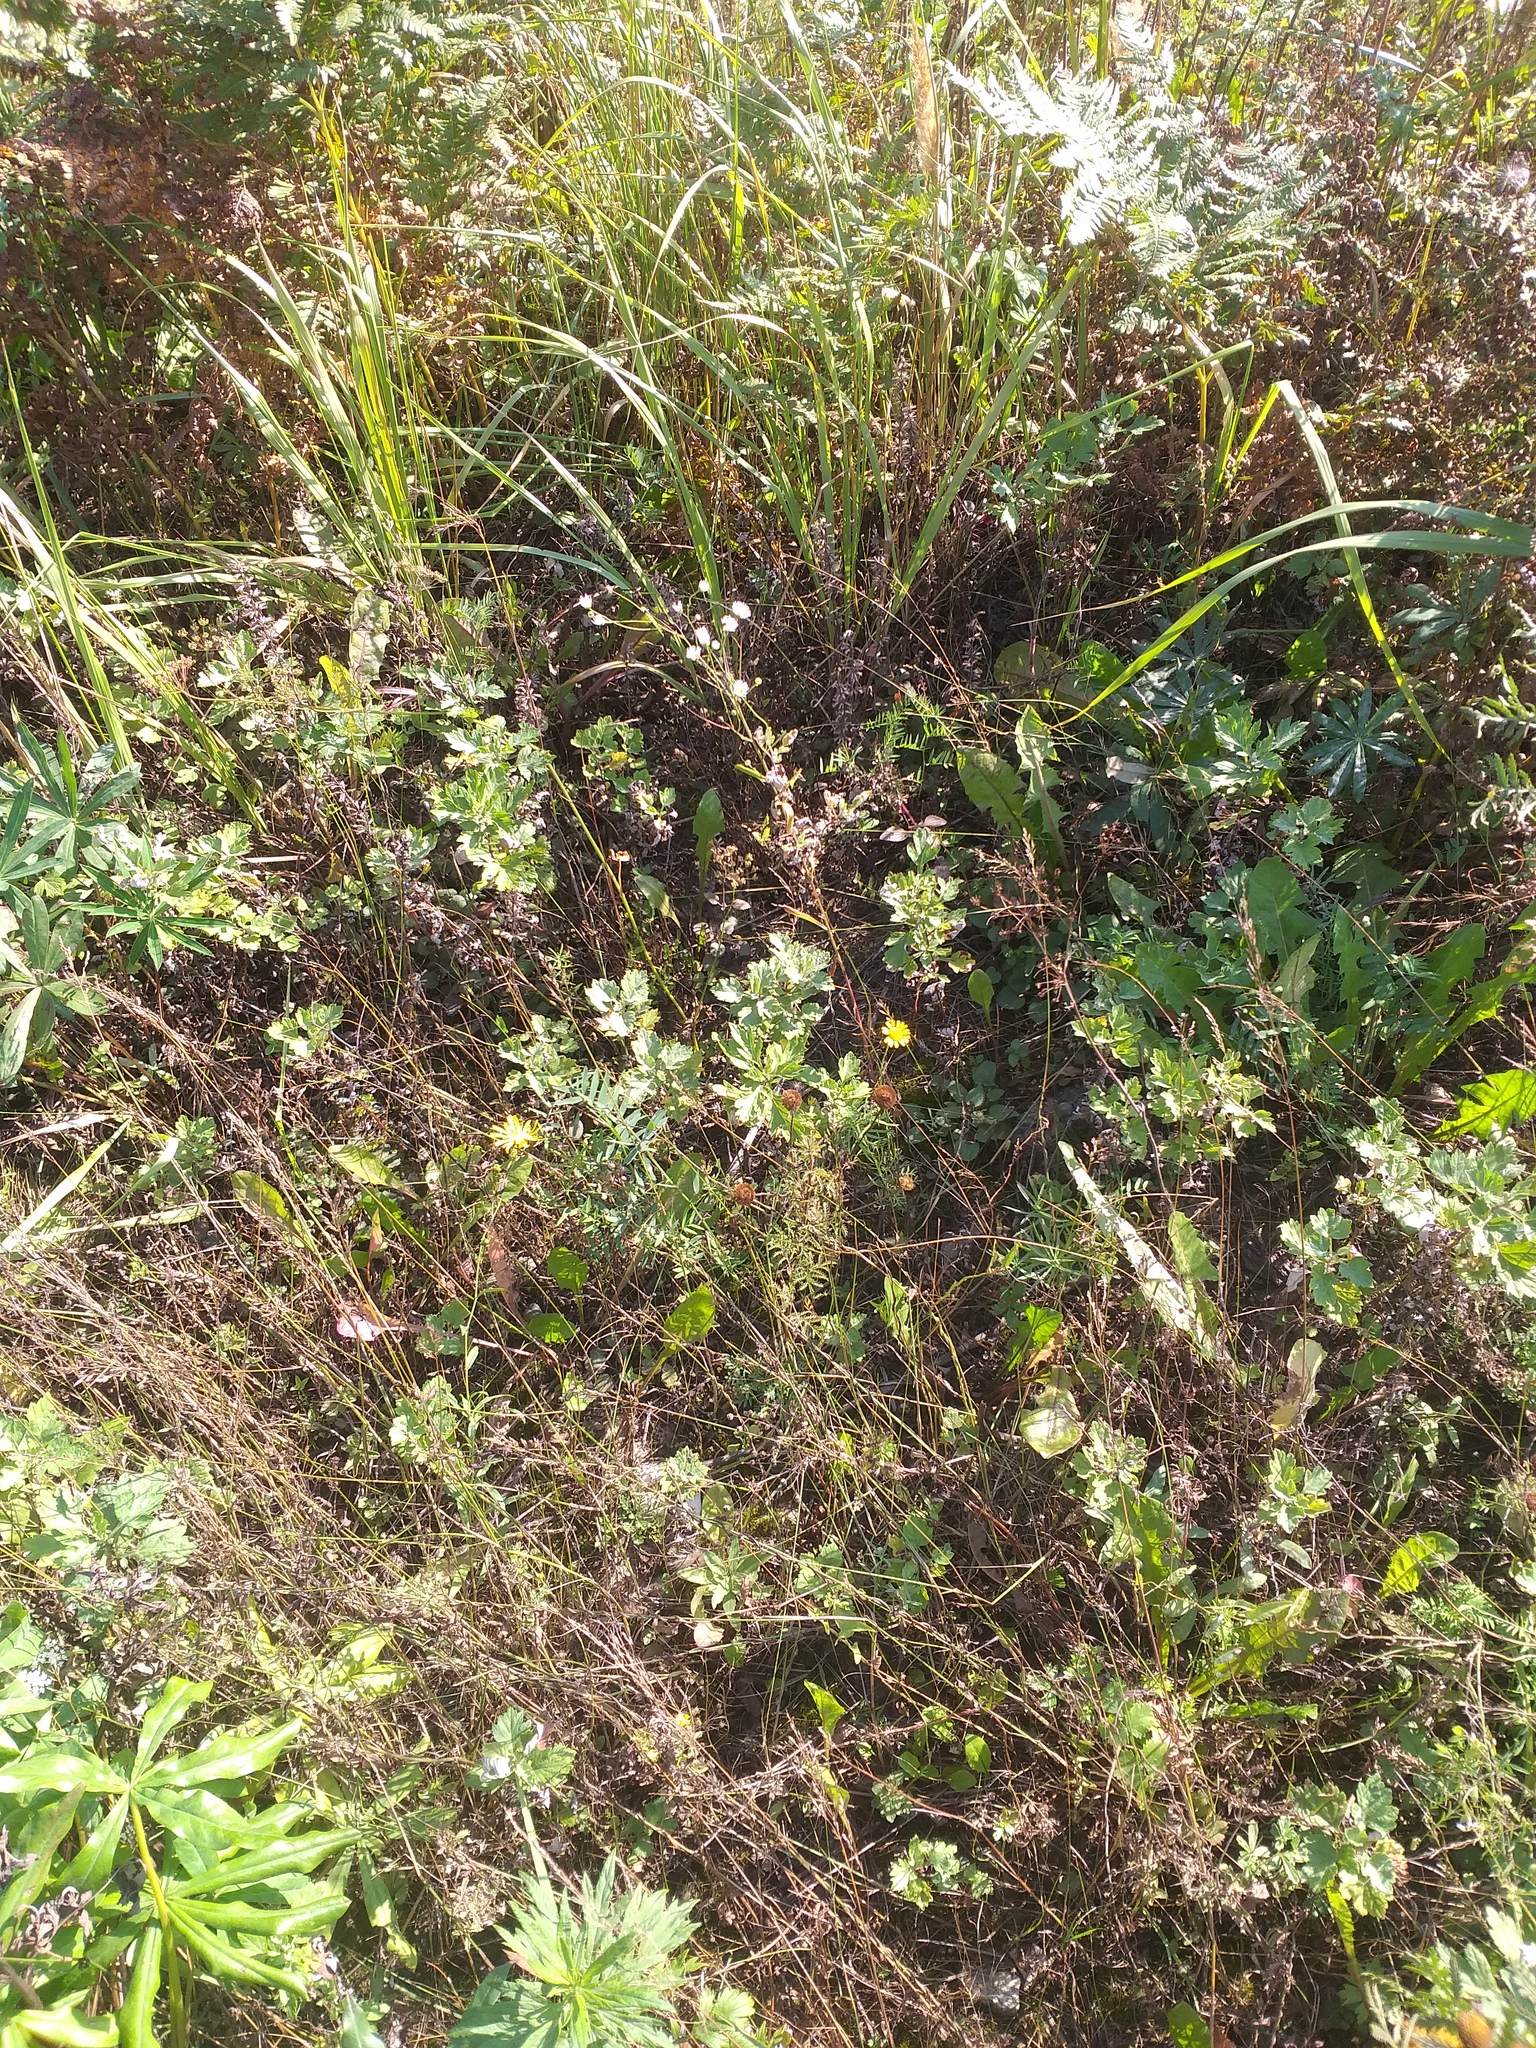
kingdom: Plantae
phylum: Tracheophyta
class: Magnoliopsida
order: Asterales
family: Asteraceae
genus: Cota
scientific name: Cota tinctoria
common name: Golden chamomile
